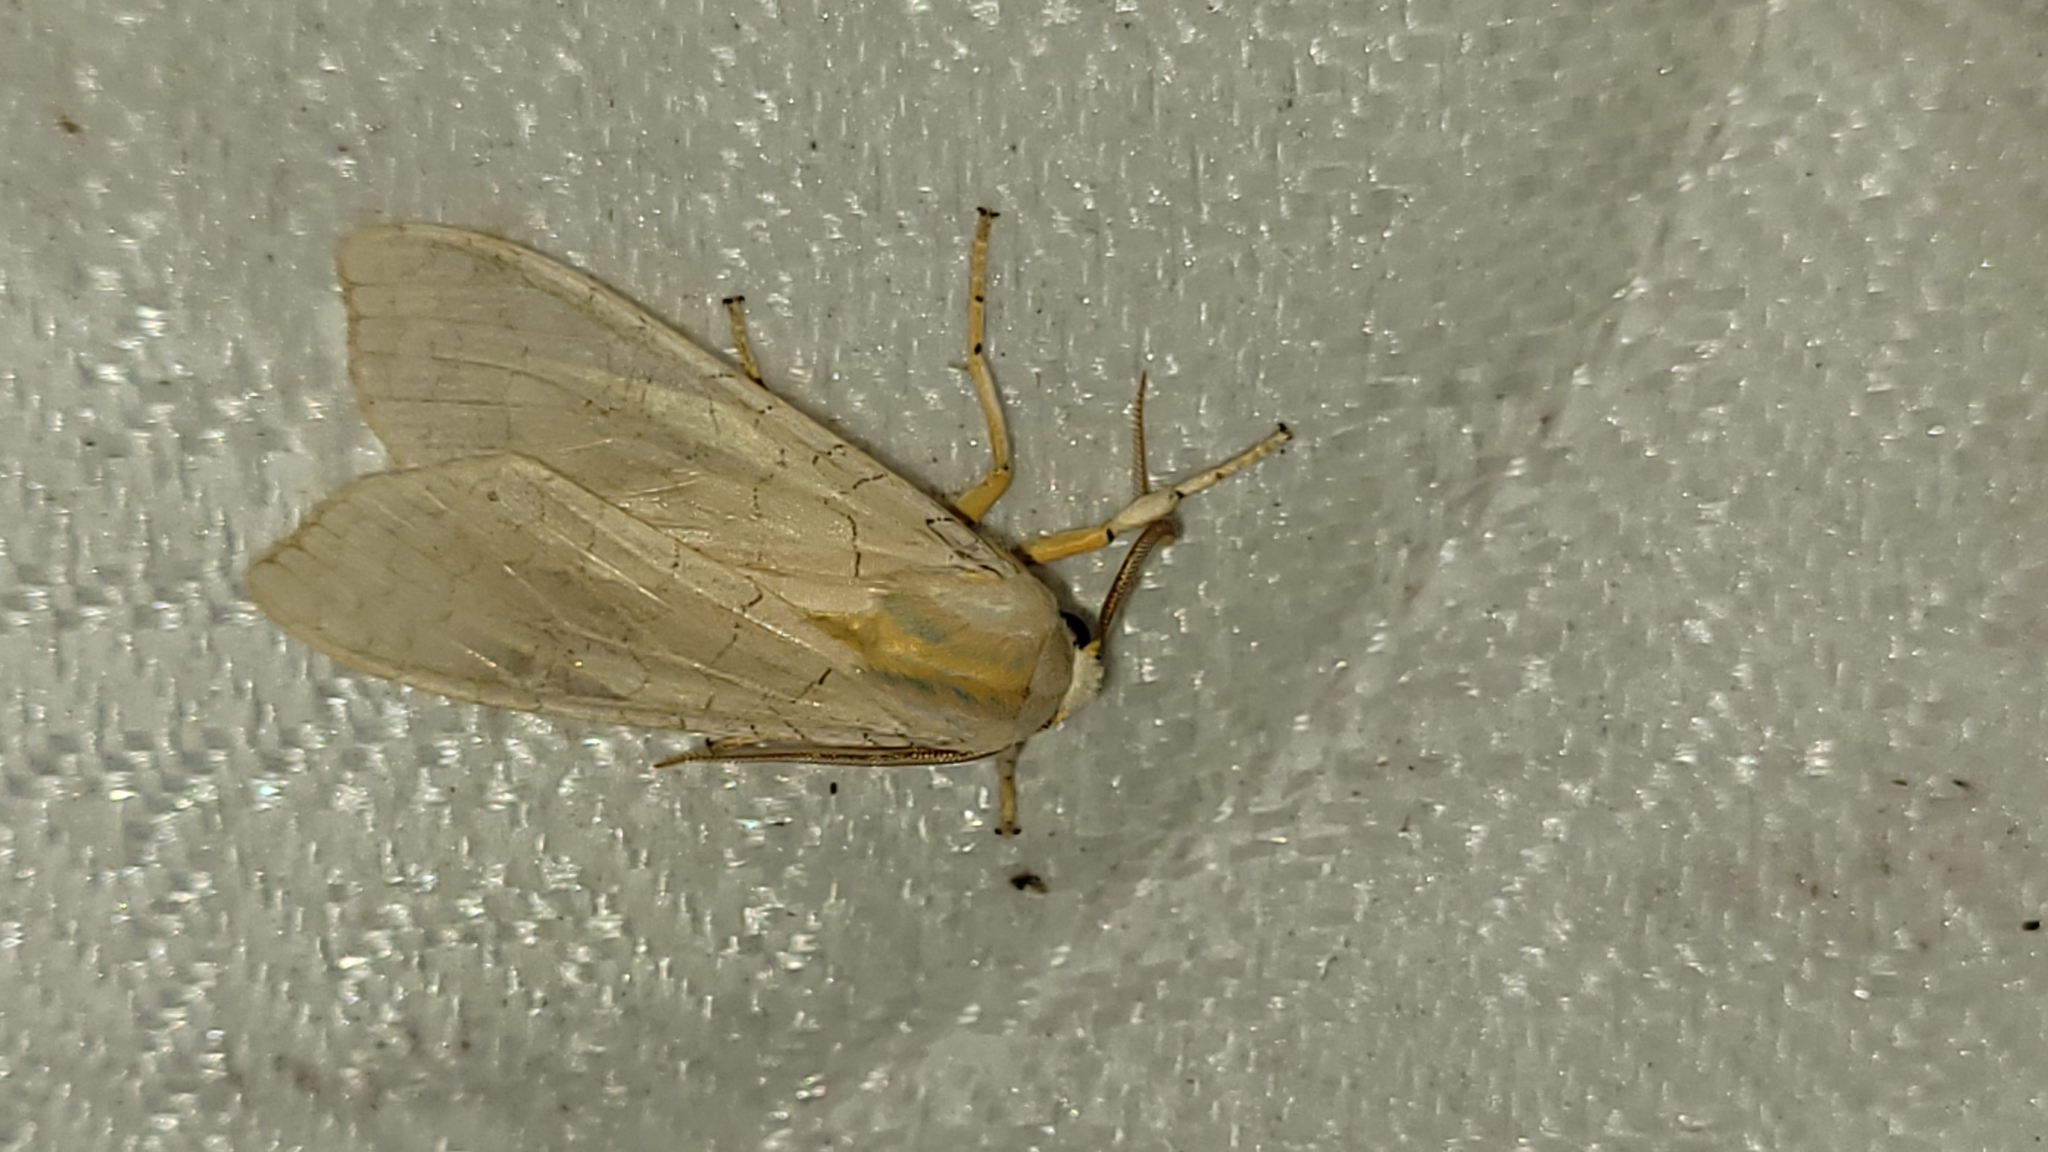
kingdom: Animalia
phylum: Arthropoda
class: Insecta
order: Lepidoptera
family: Erebidae
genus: Halysidota
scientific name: Halysidota tessellaris
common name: Banded tussock moth
